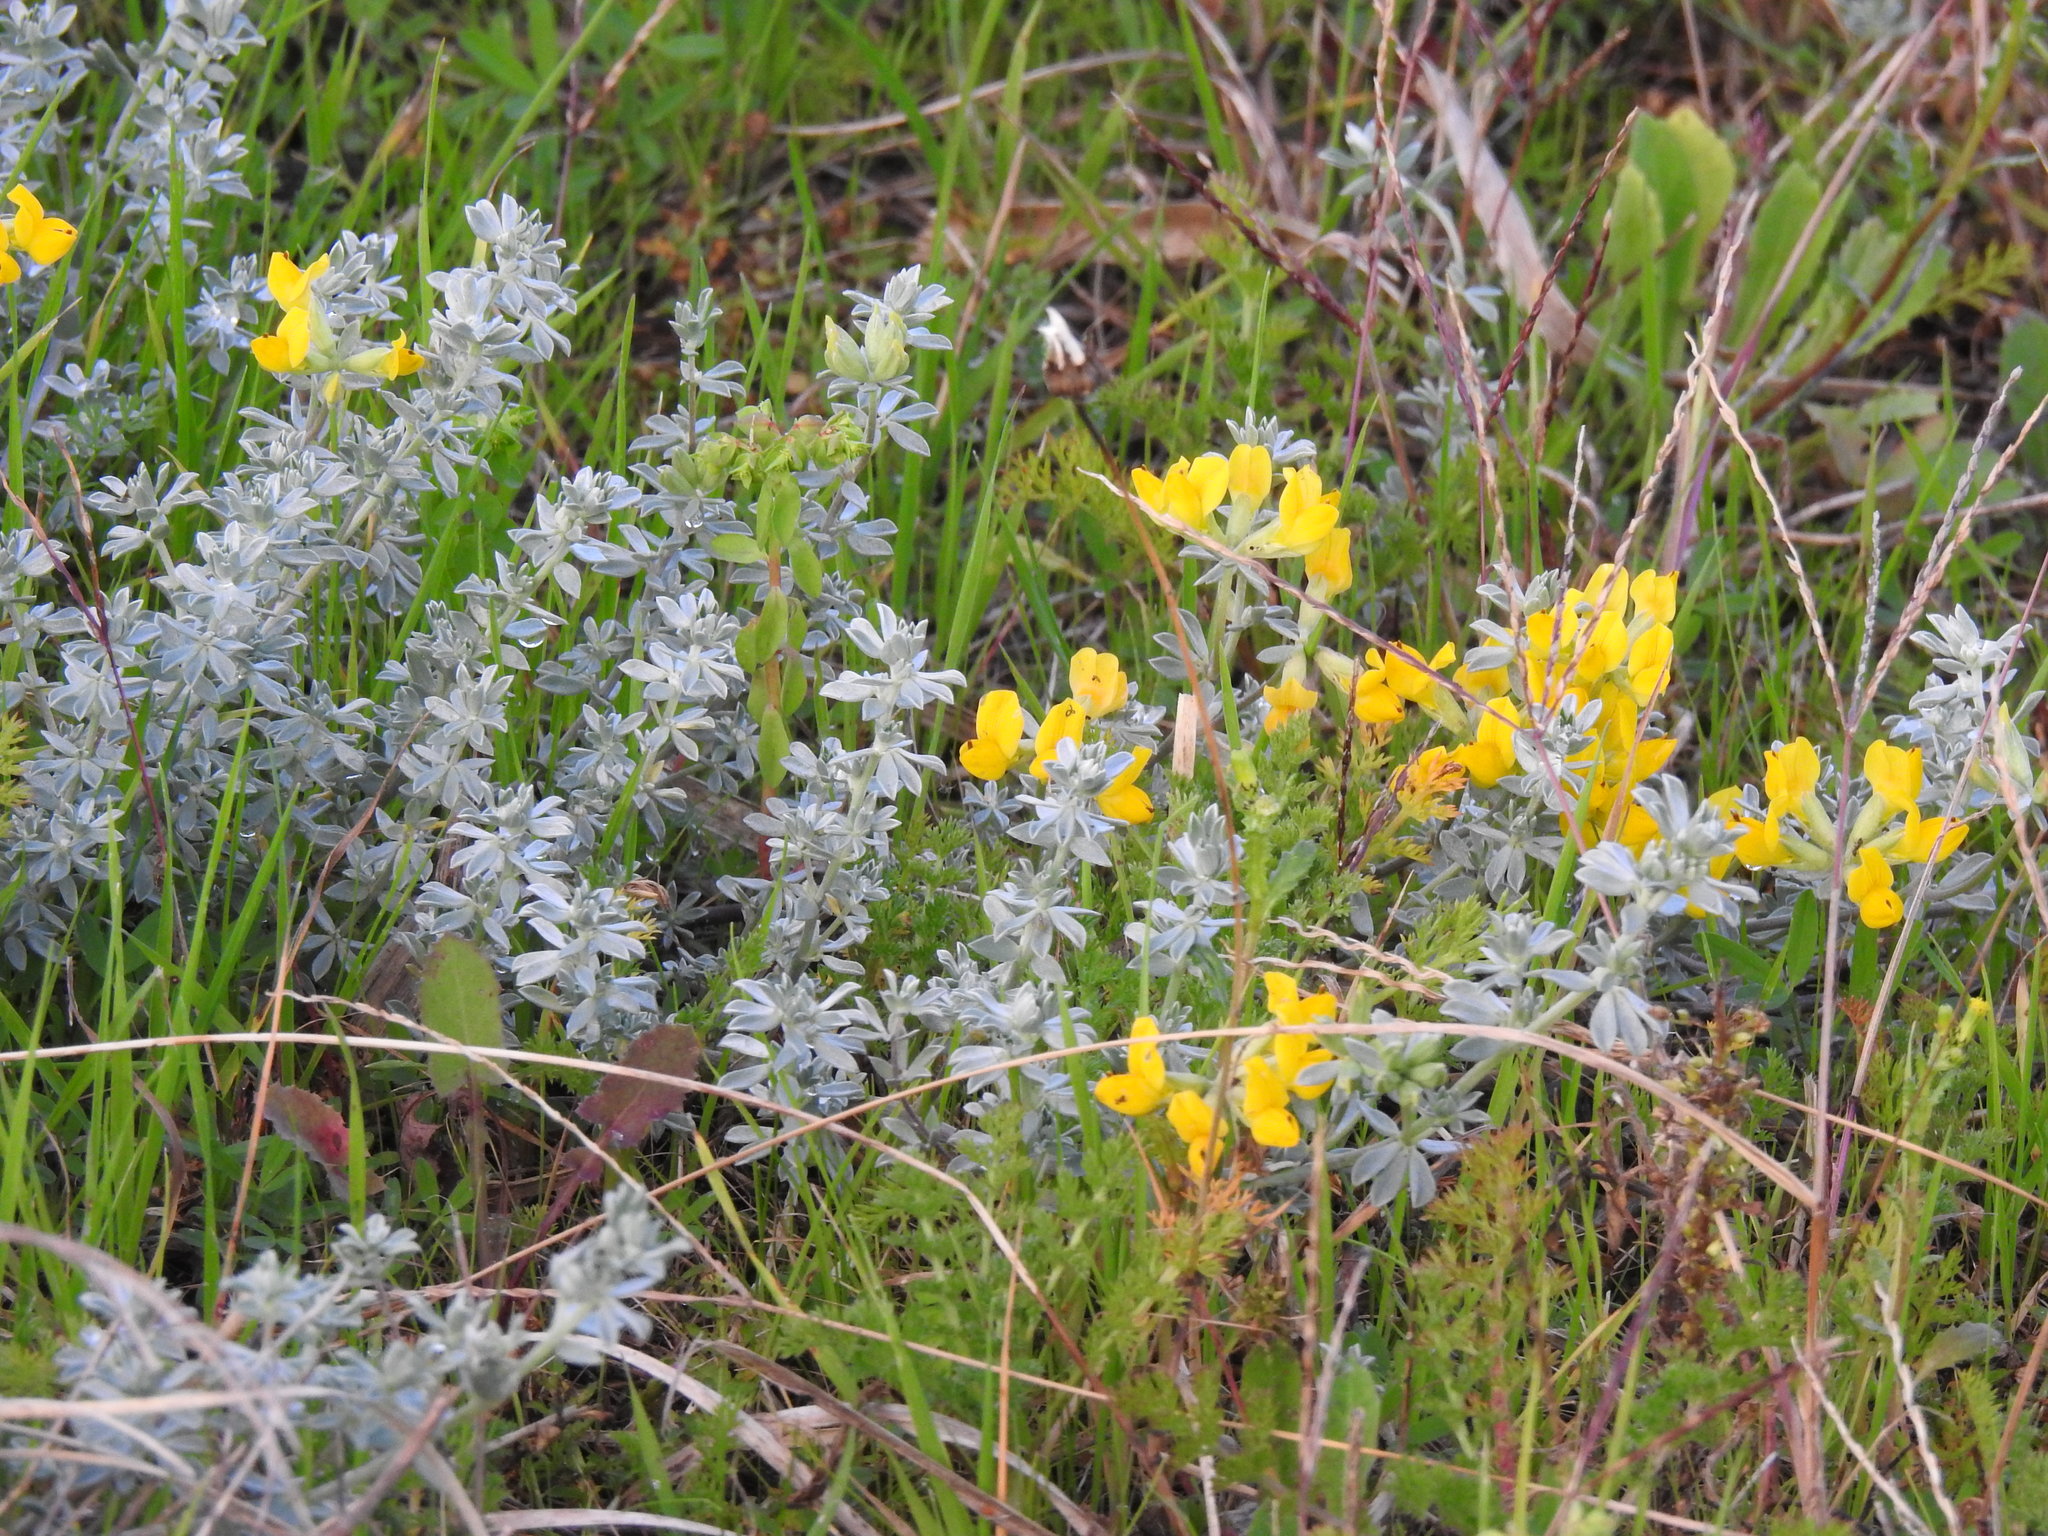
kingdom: Plantae
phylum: Tracheophyta
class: Magnoliopsida
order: Fabales
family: Fabaceae
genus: Lotus
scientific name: Lotus creticus
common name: Cretan bird's-foot trefoil
